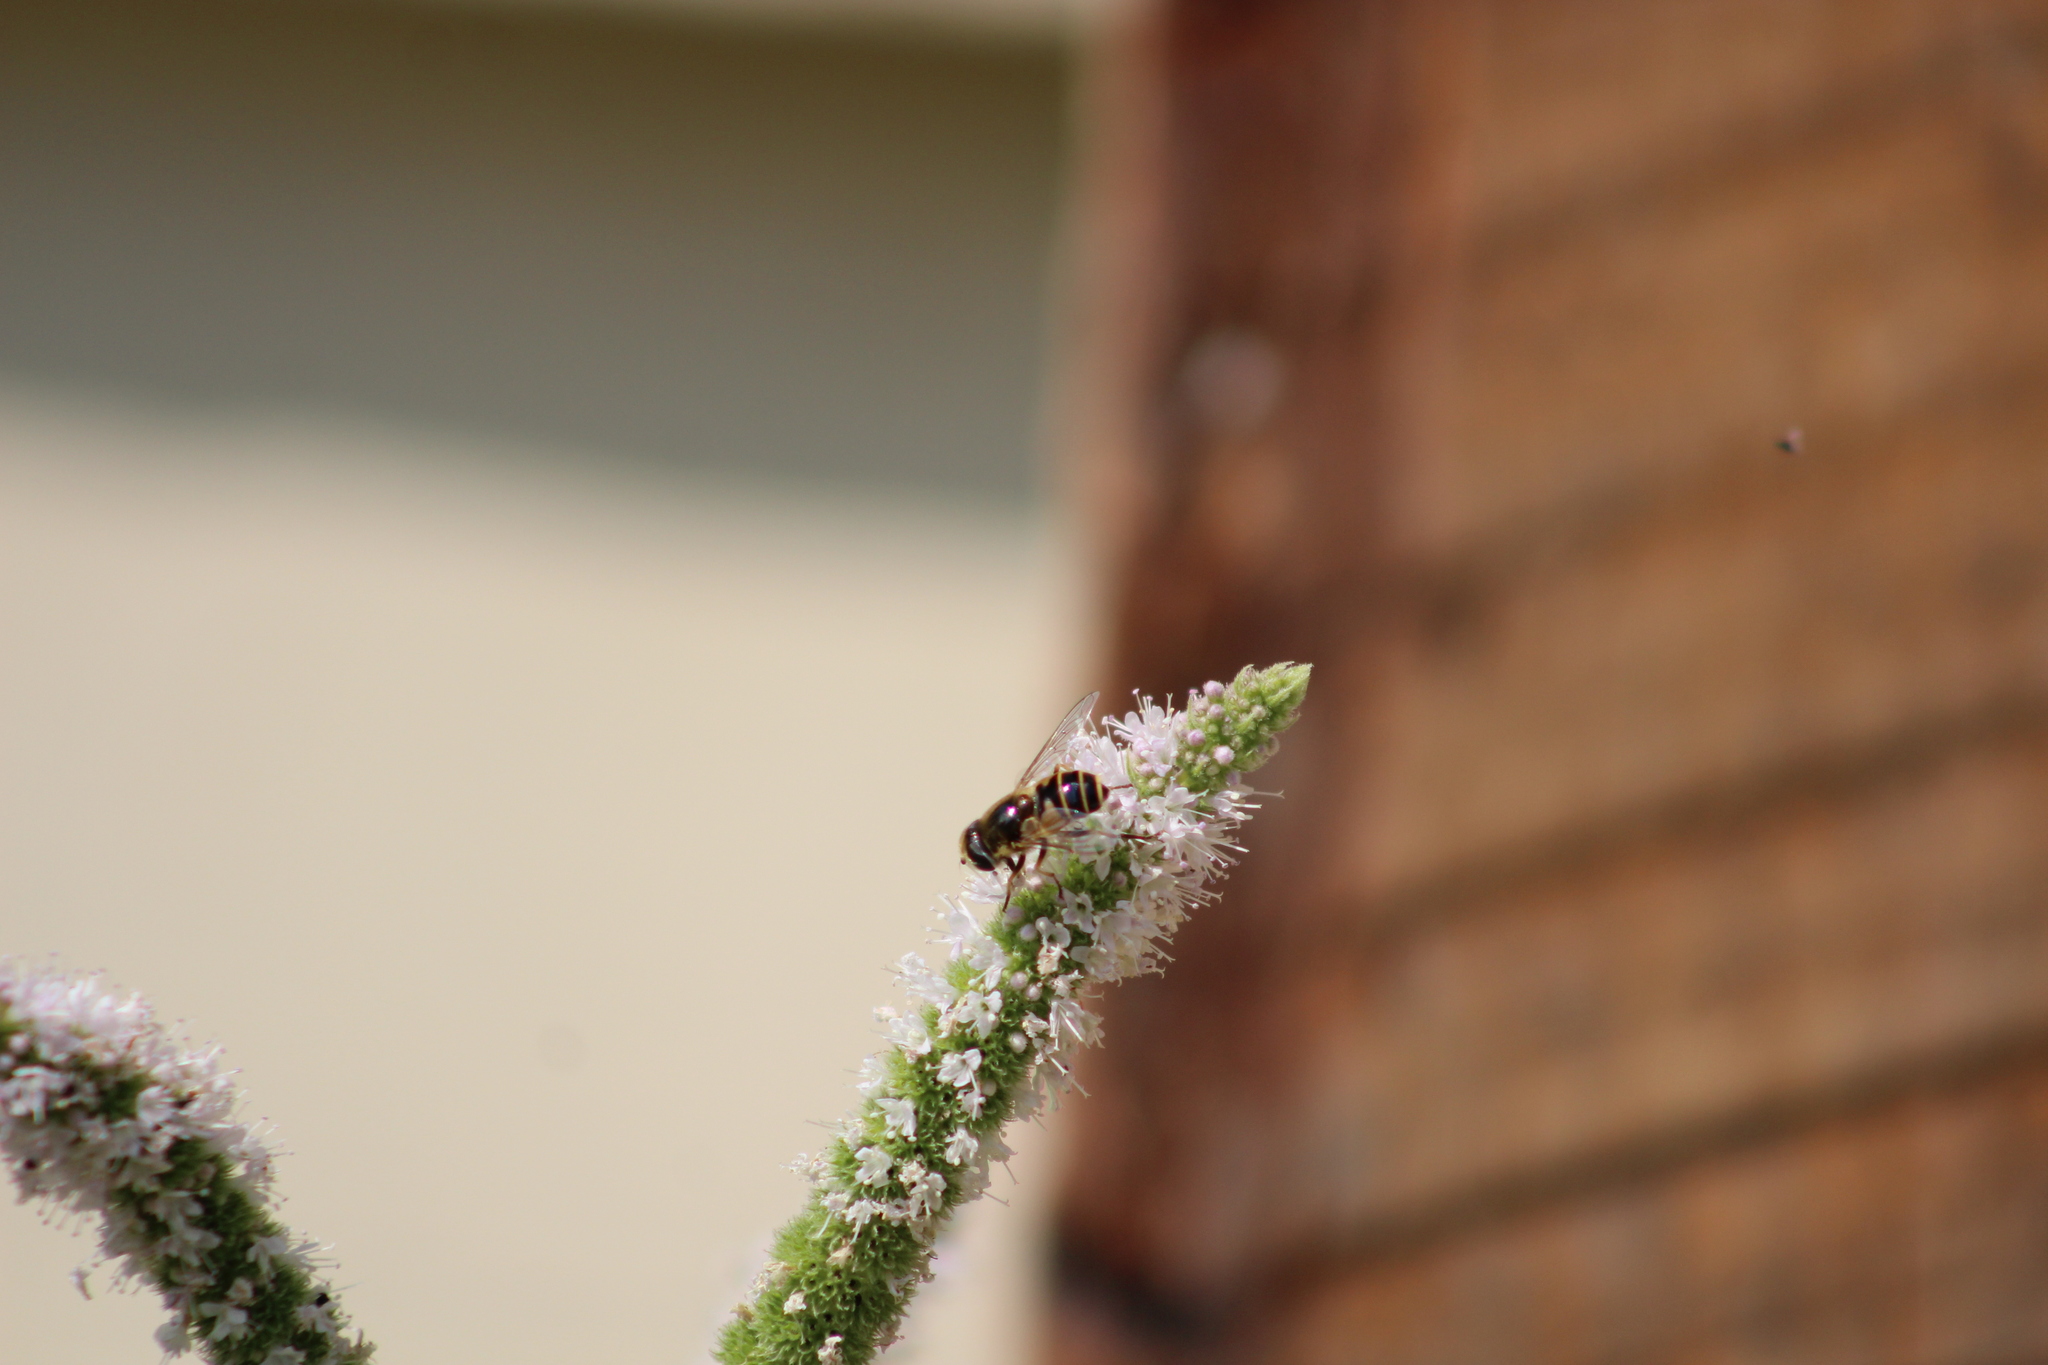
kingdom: Animalia
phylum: Arthropoda
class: Insecta
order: Diptera
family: Syrphidae
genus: Eristalis
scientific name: Eristalis hirta
